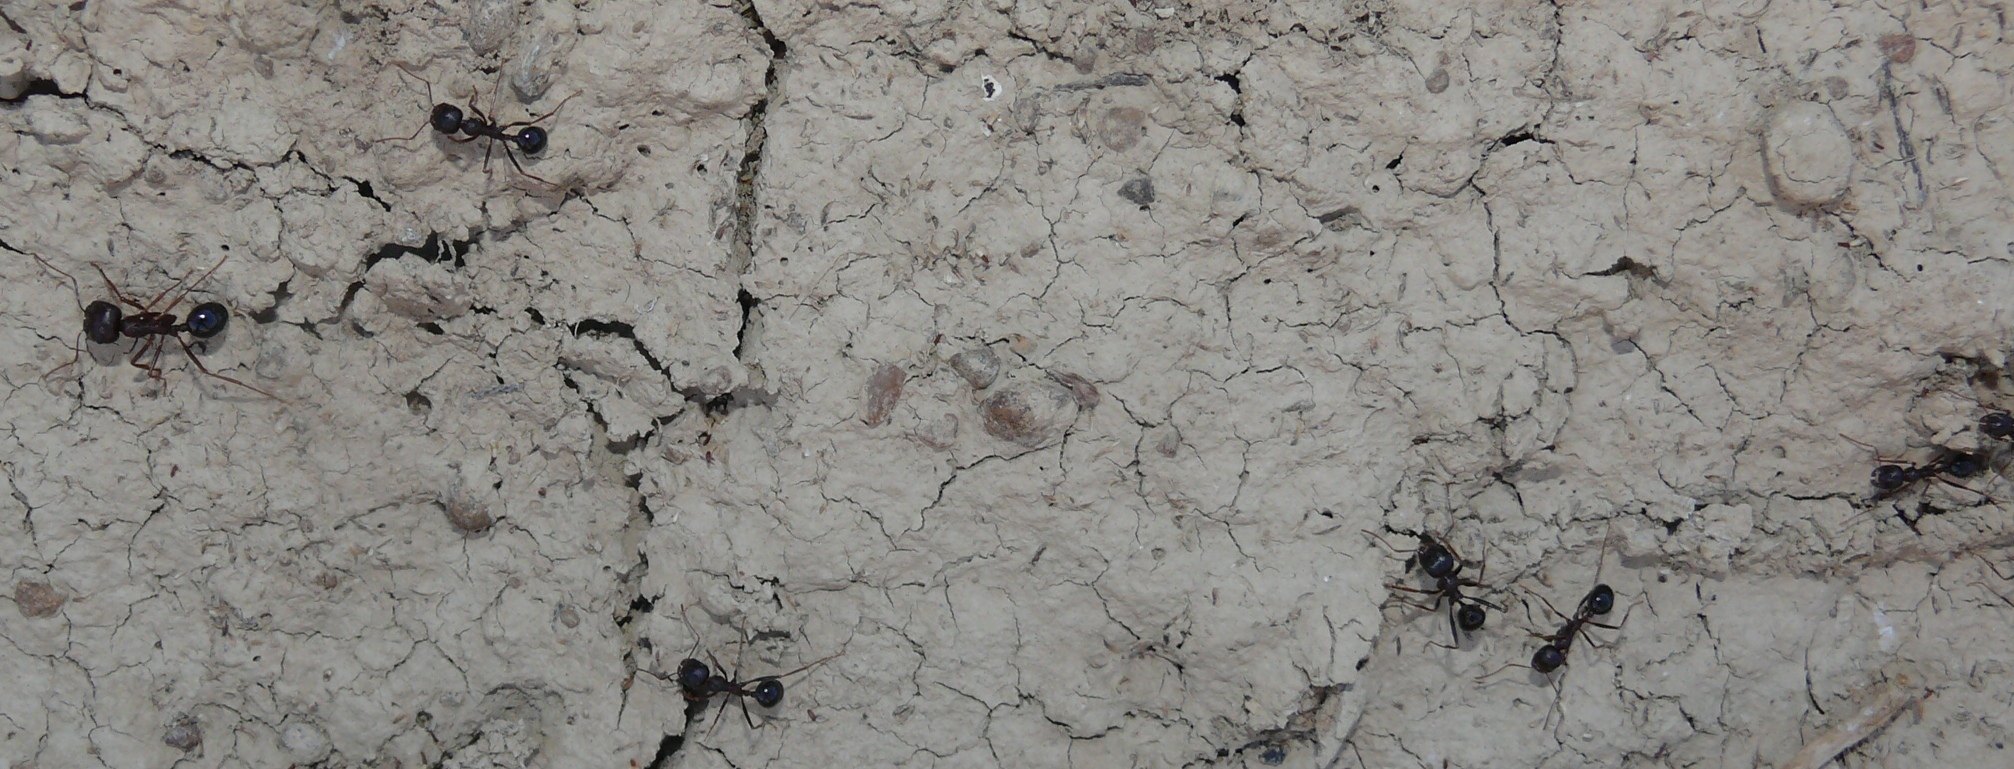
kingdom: Animalia
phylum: Arthropoda
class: Insecta
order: Hymenoptera
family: Formicidae
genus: Messor
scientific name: Messor capensis
